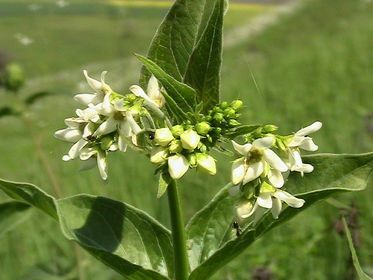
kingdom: Plantae
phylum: Tracheophyta
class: Magnoliopsida
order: Gentianales
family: Apocynaceae
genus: Vincetoxicum
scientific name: Vincetoxicum hirundinaria
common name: White swallowwort
